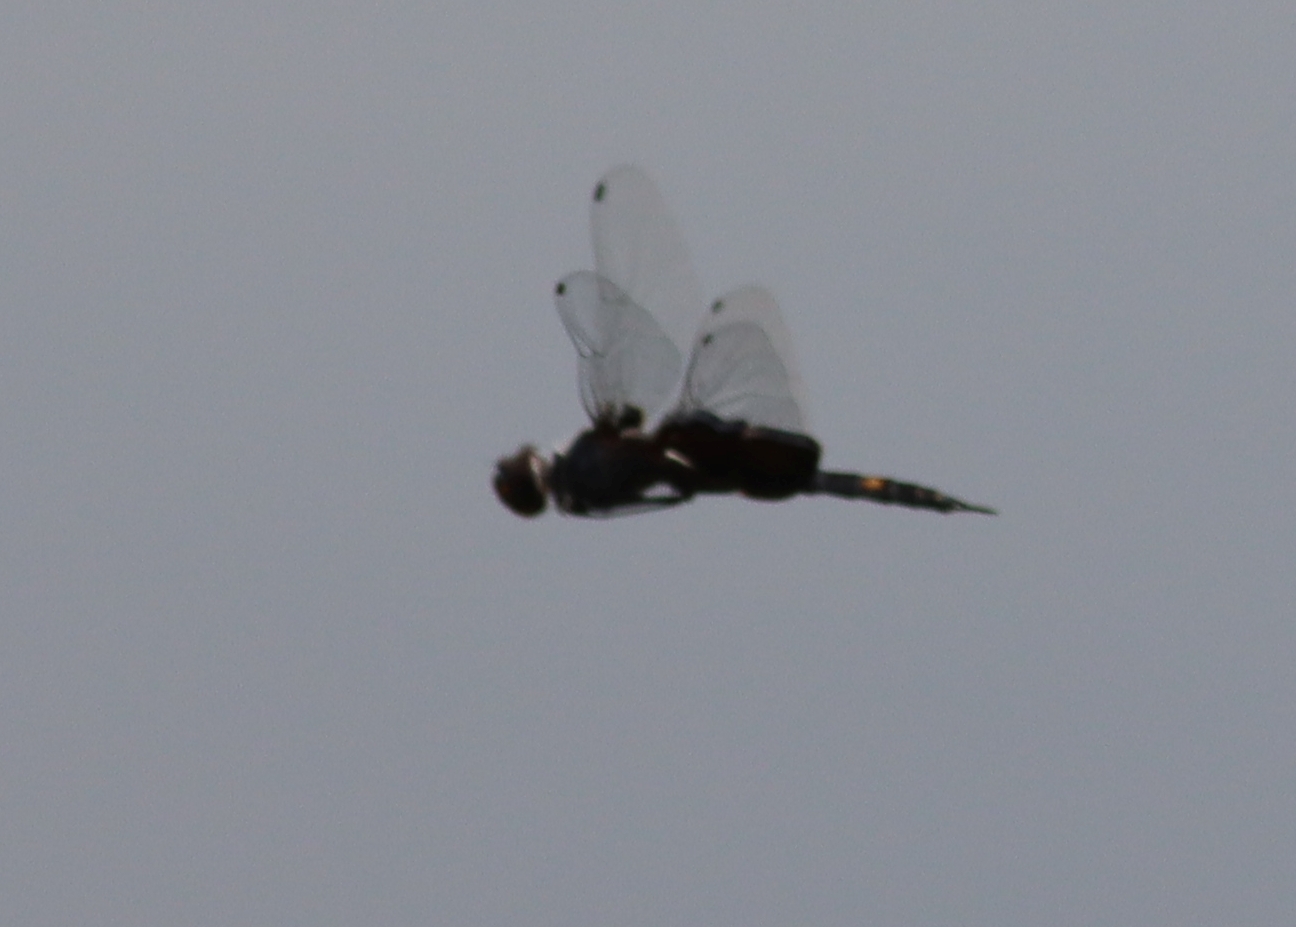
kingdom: Animalia
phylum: Arthropoda
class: Insecta
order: Odonata
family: Libellulidae
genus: Tramea
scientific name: Tramea lacerata
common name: Black saddlebags
